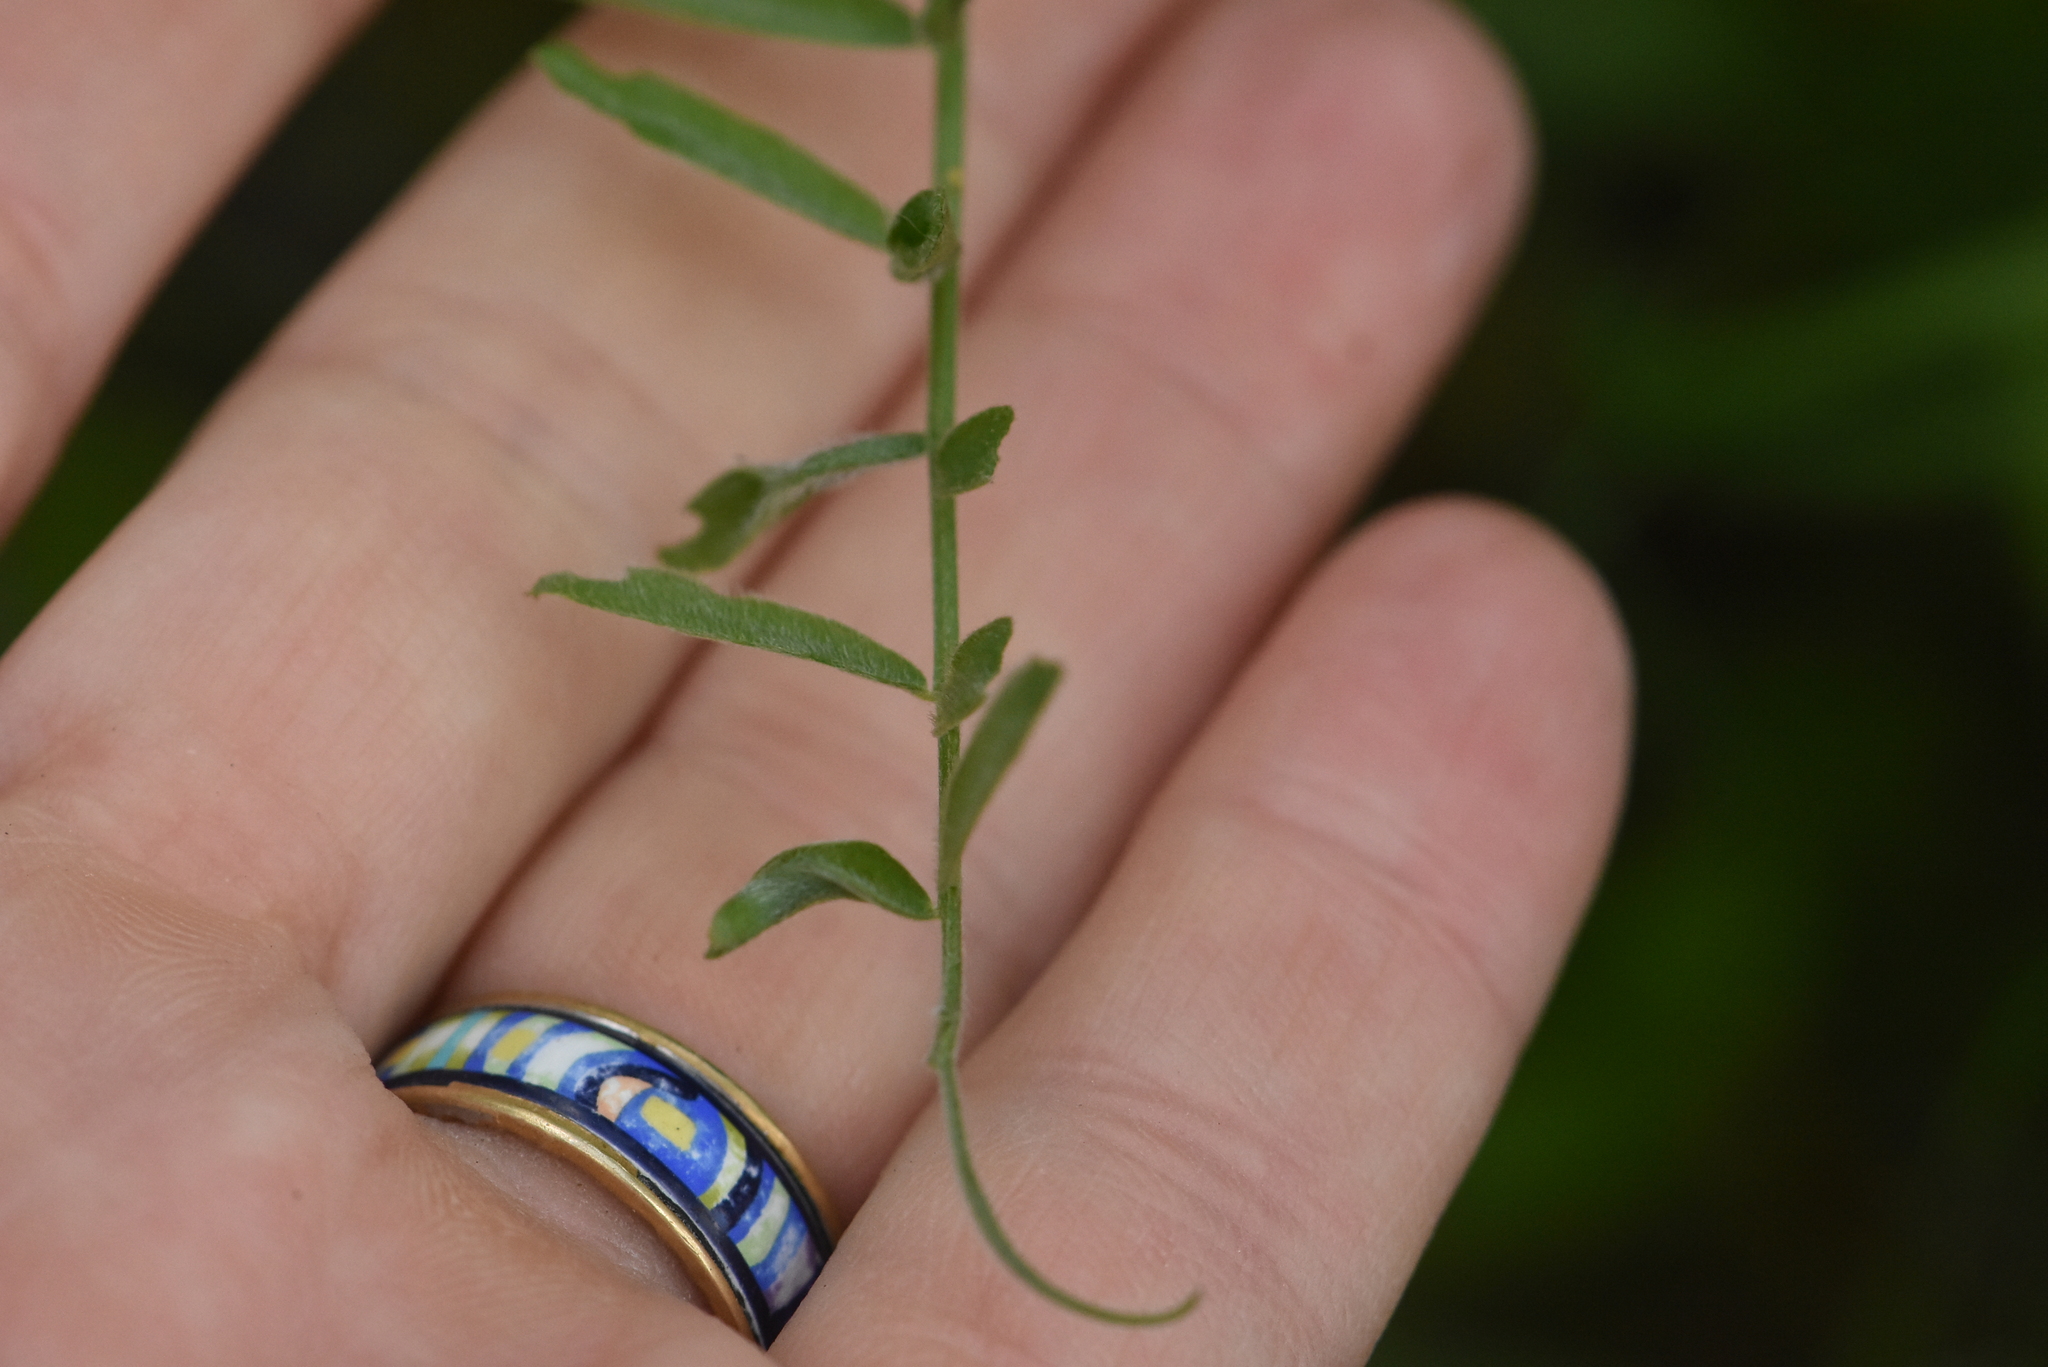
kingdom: Plantae
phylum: Tracheophyta
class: Magnoliopsida
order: Fabales
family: Fabaceae
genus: Vicia
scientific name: Vicia cracca
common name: Bird vetch
